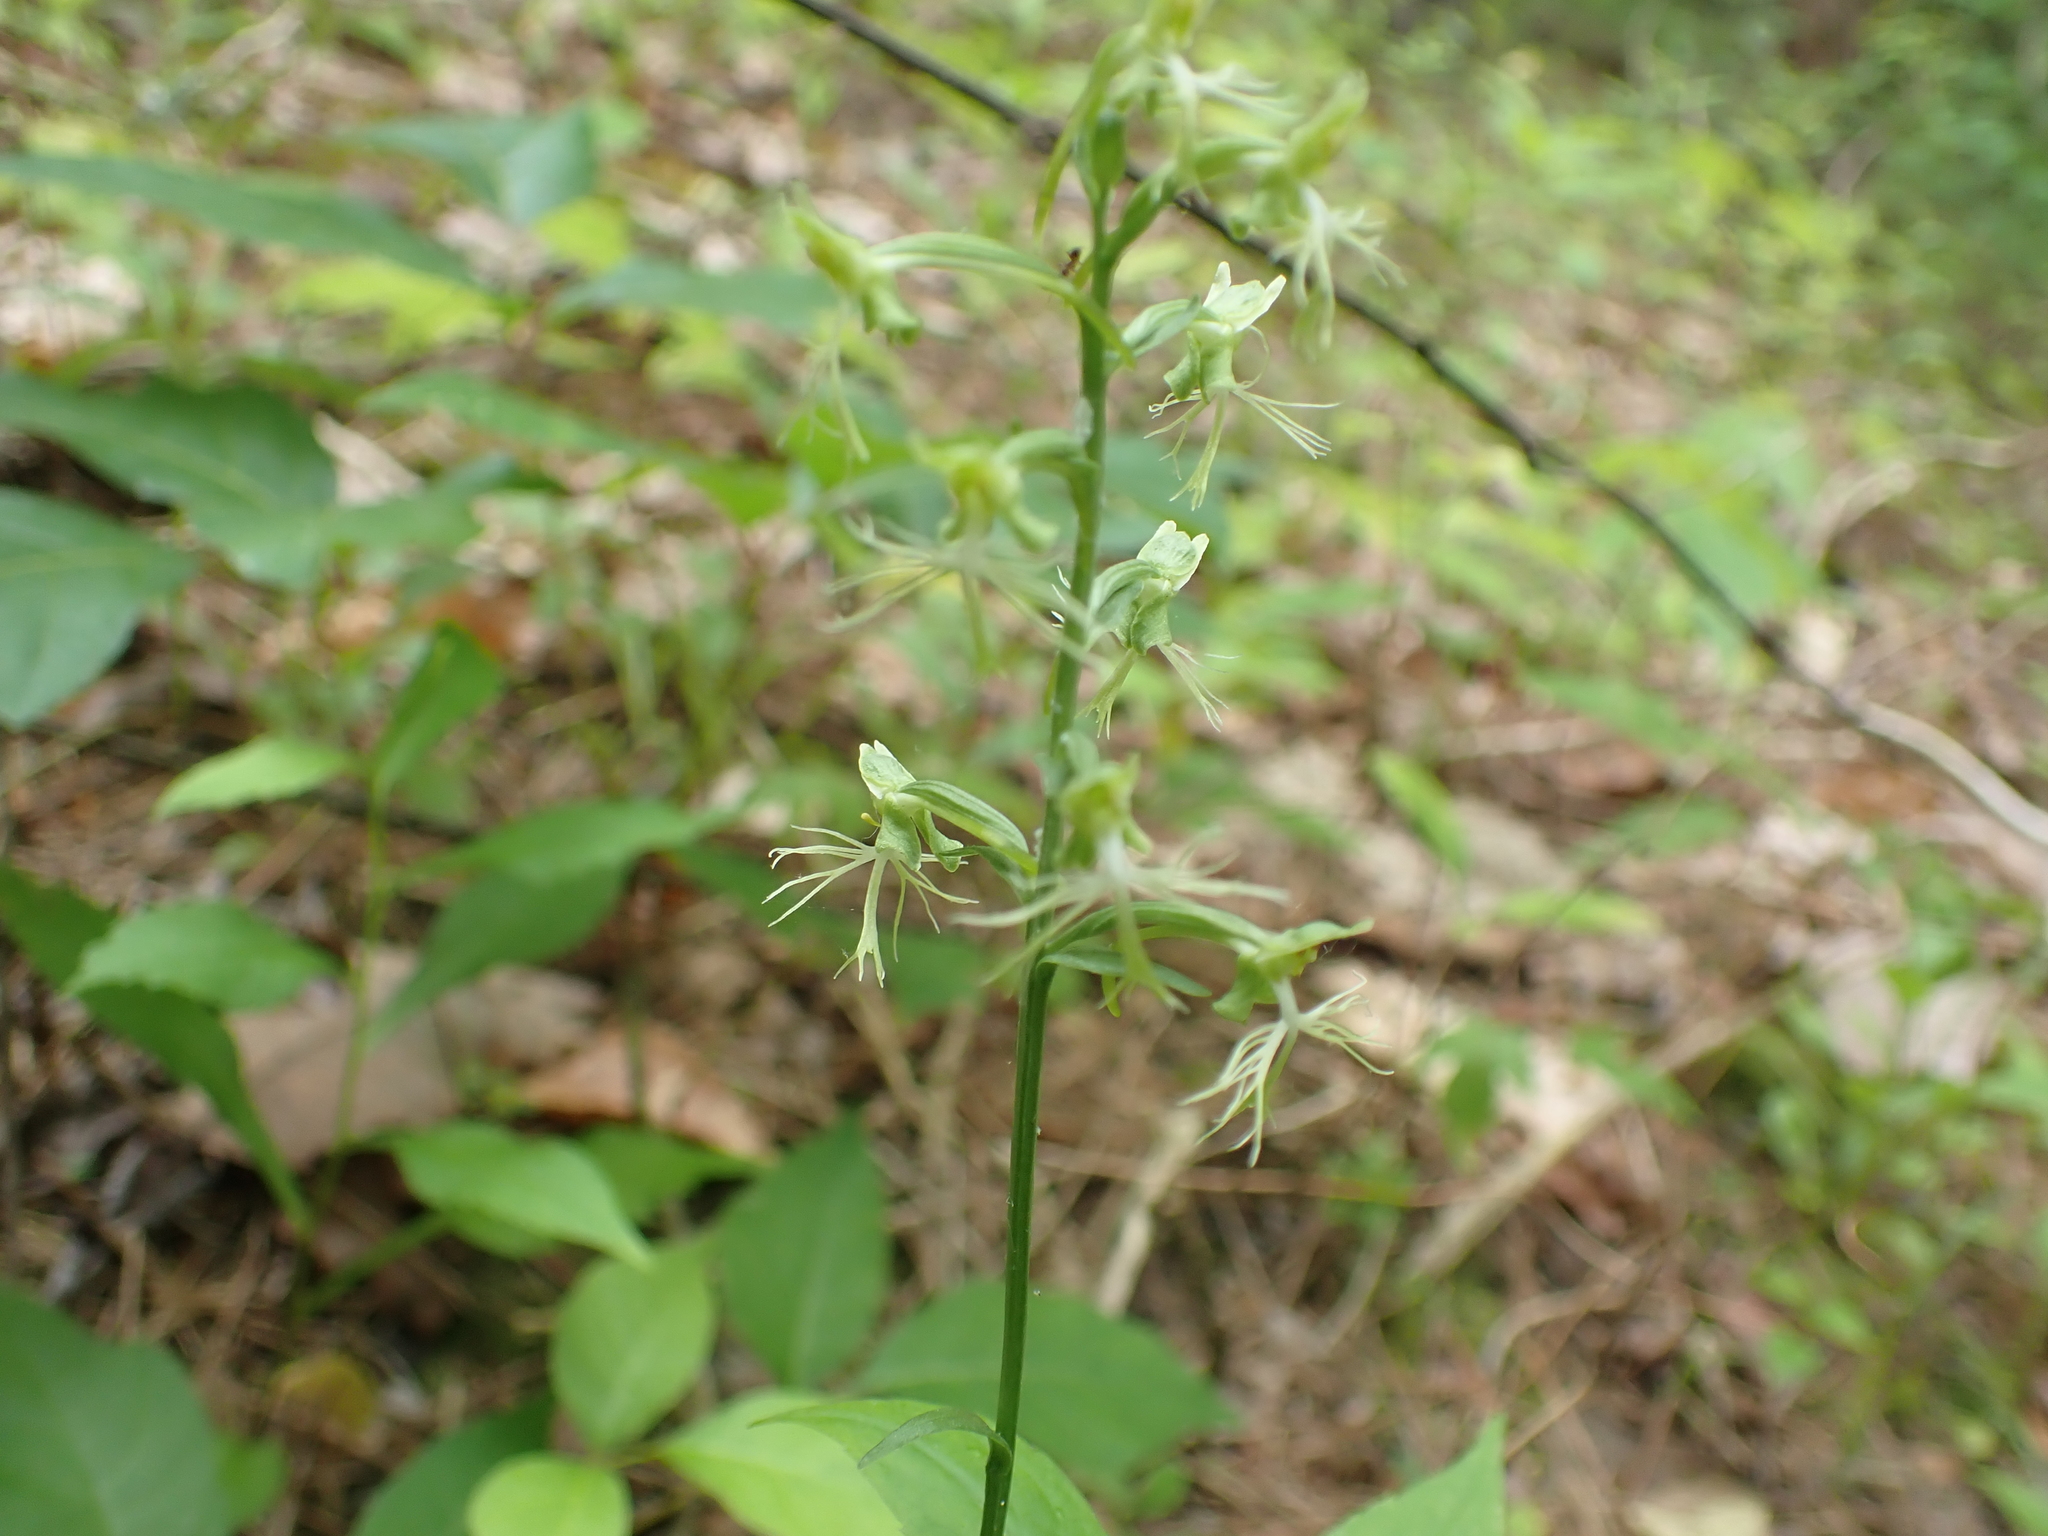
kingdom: Plantae
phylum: Tracheophyta
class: Liliopsida
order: Asparagales
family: Orchidaceae
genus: Platanthera
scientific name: Platanthera lacera
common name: Green fringed orchid
